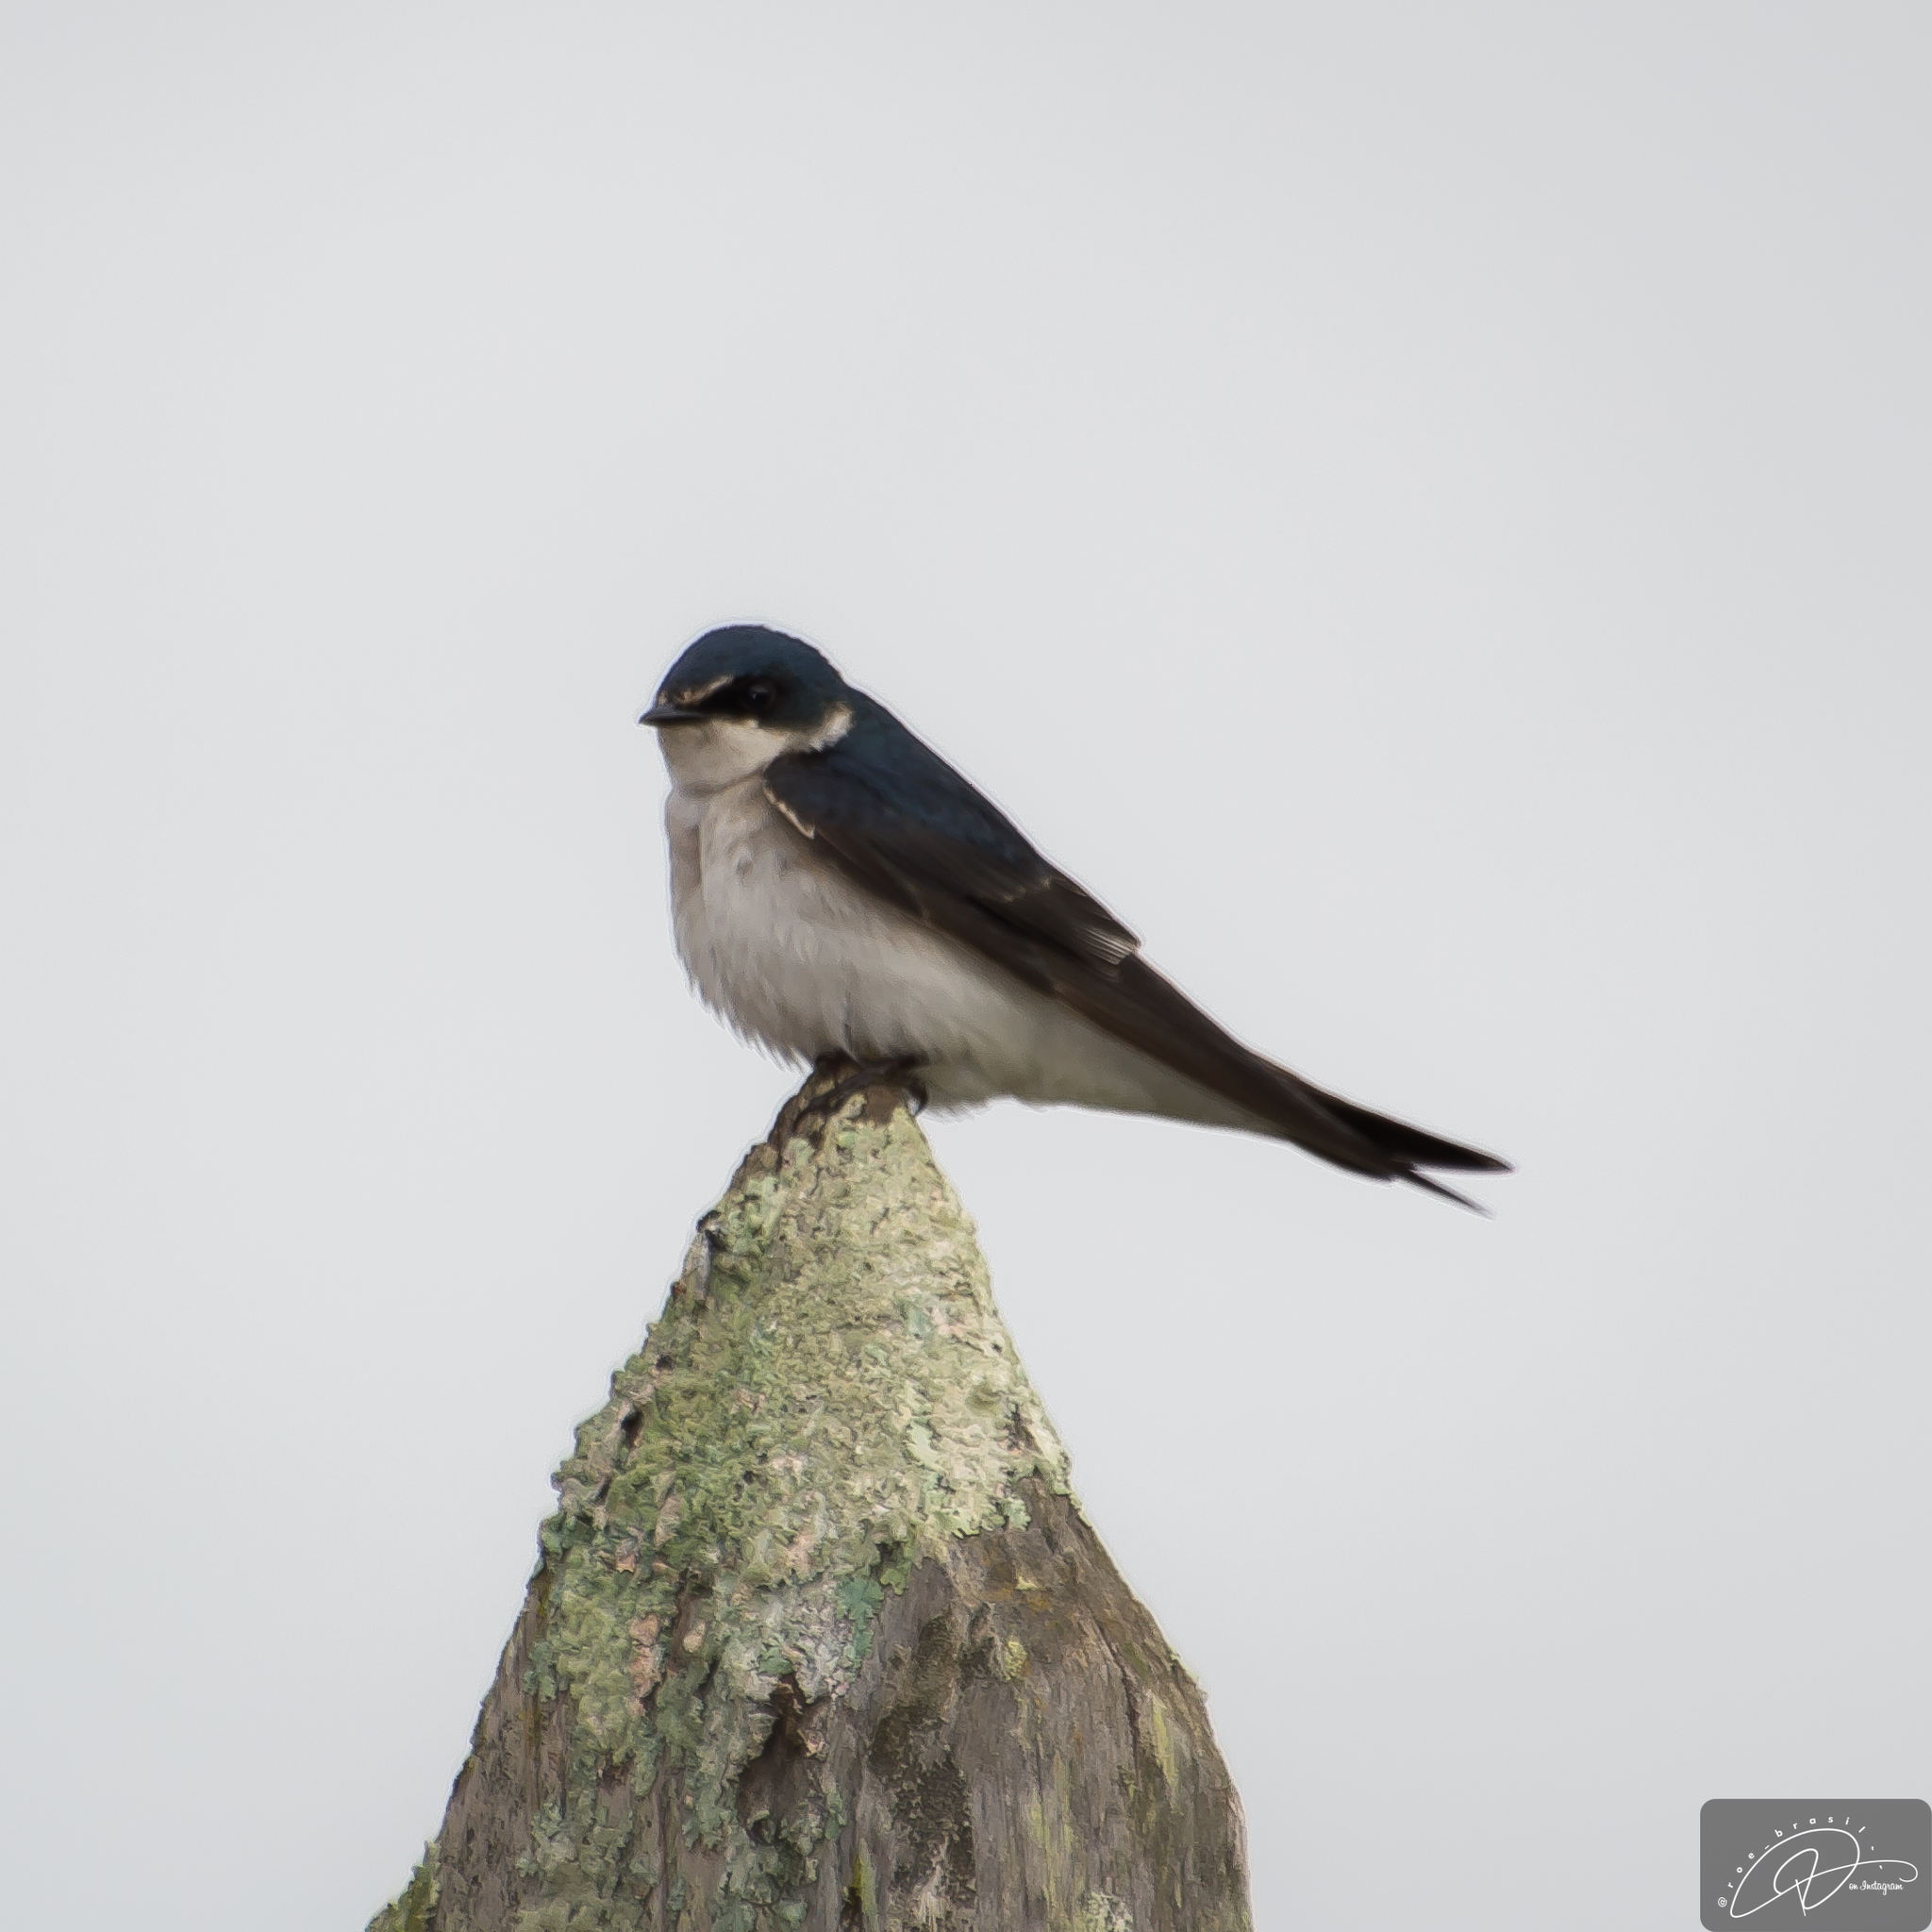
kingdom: Animalia
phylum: Chordata
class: Aves
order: Passeriformes
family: Hirundinidae
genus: Tachycineta
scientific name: Tachycineta leucorrhoa
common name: White-rumped swallow
